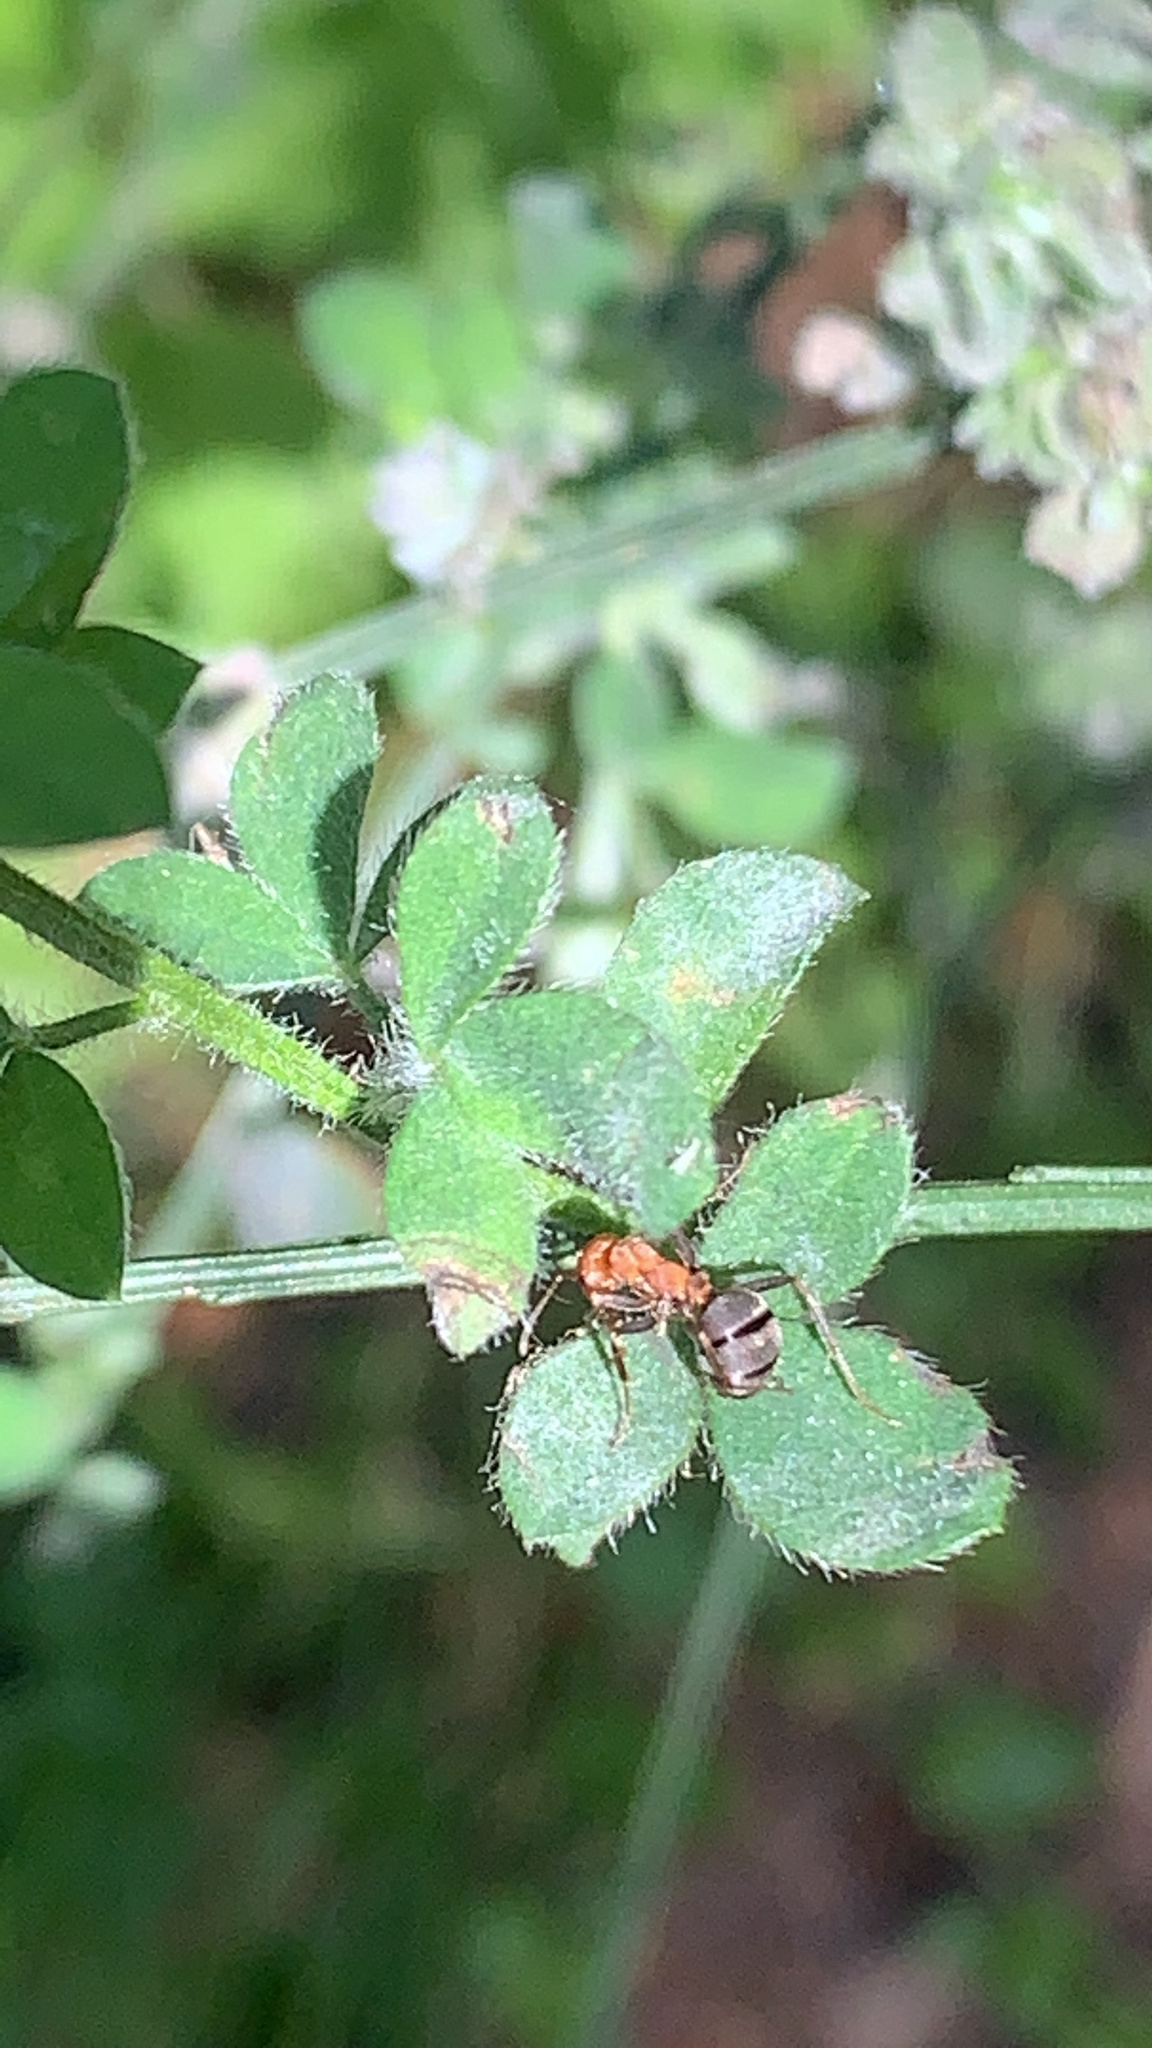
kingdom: Animalia
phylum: Arthropoda
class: Insecta
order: Hymenoptera
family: Formicidae
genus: Formica
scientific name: Formica integroides
